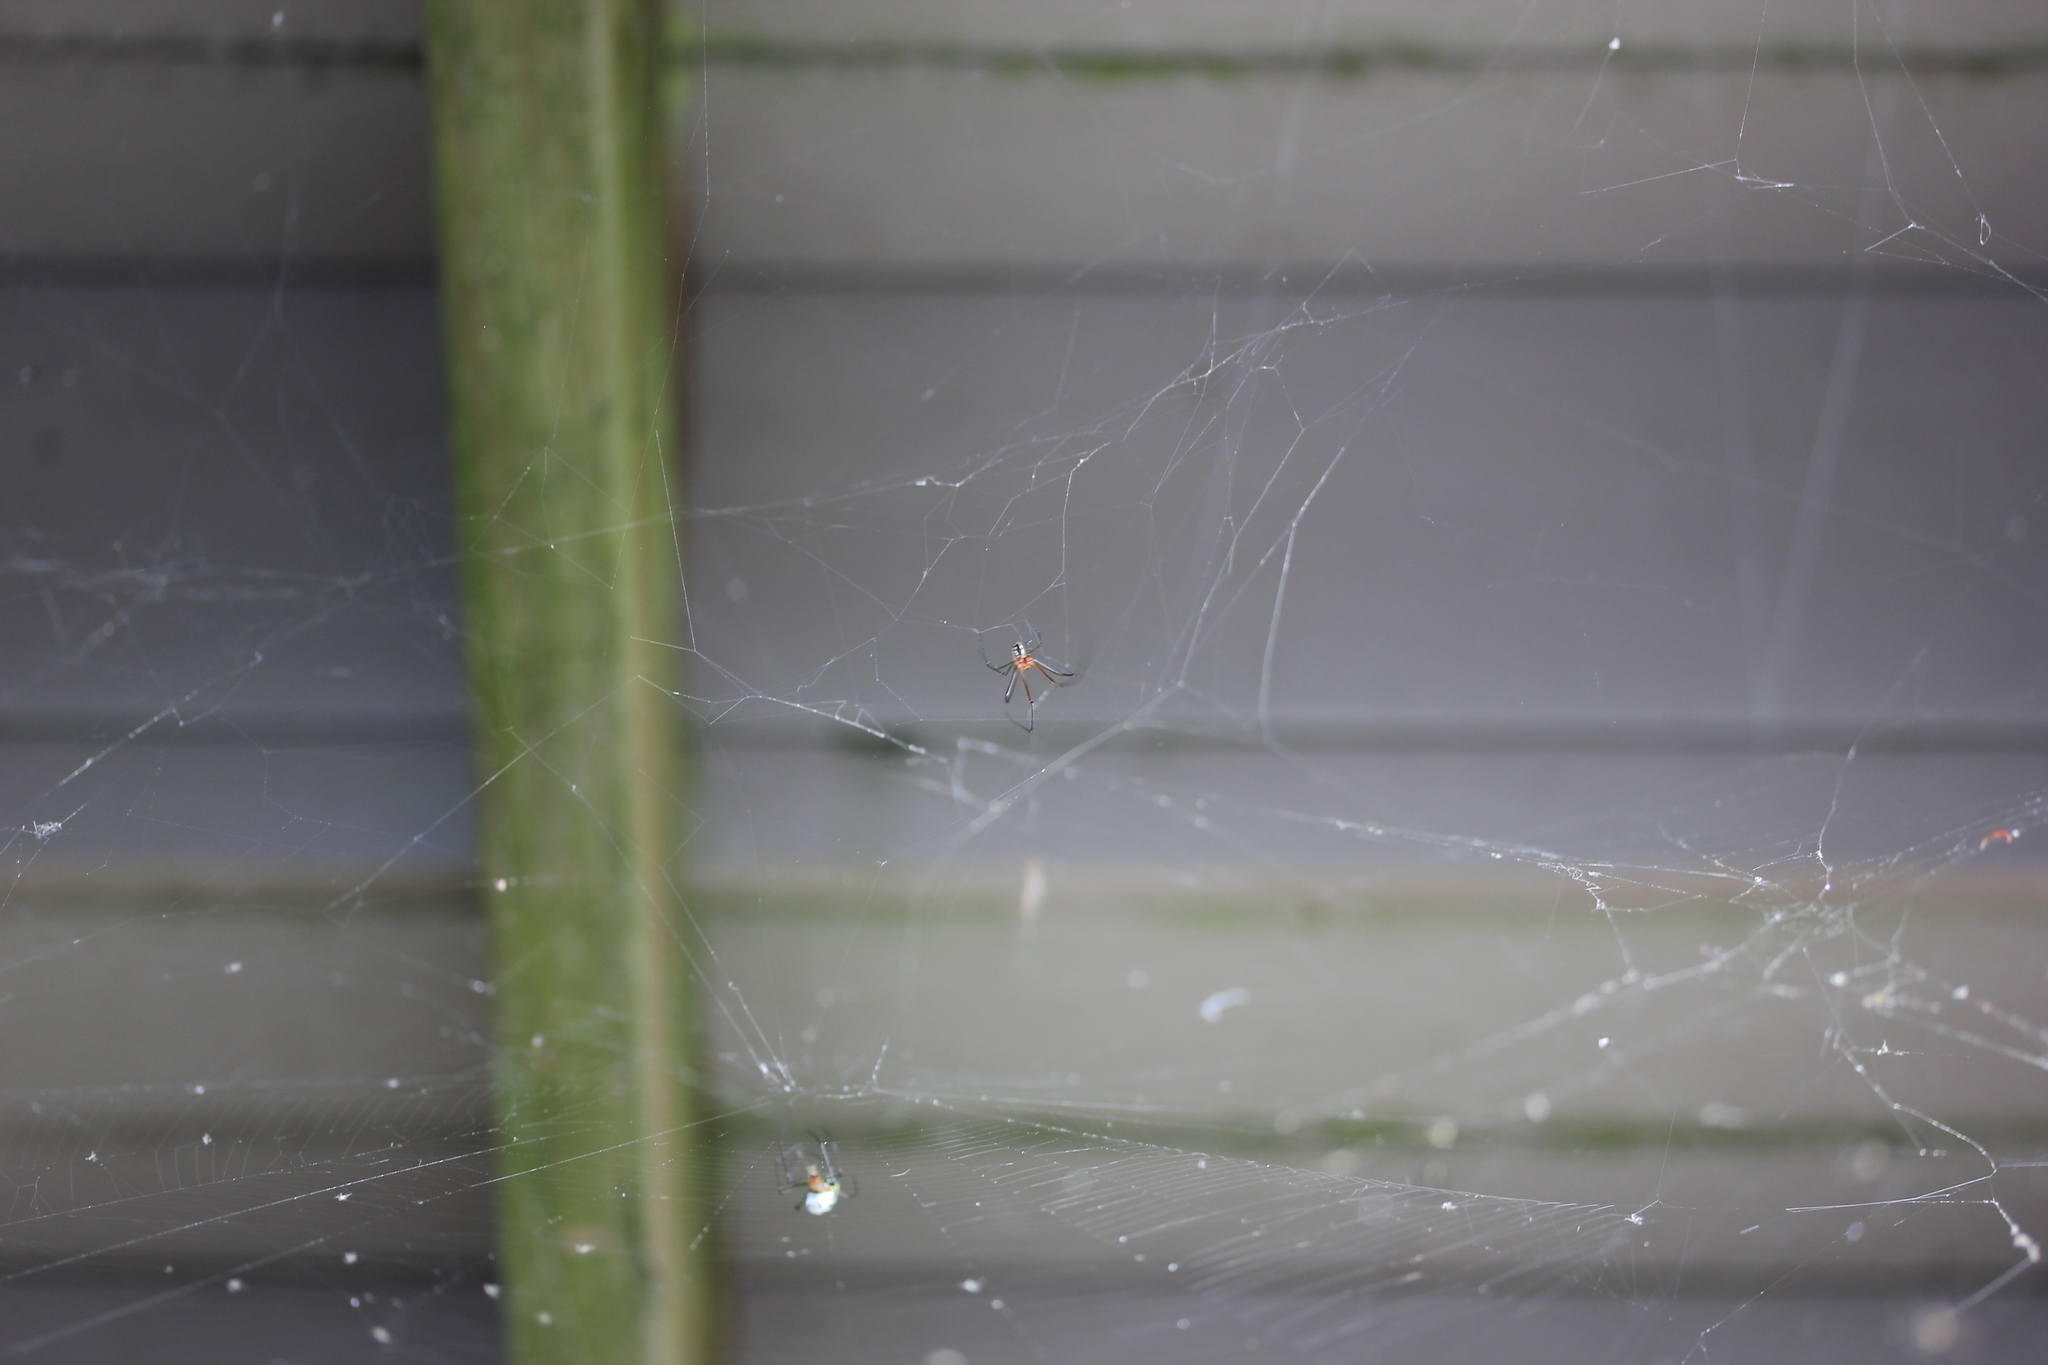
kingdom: Animalia
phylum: Arthropoda
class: Arachnida
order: Araneae
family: Tetragnathidae
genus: Leucauge
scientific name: Leucauge argyra
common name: Longjawed orb weavers
